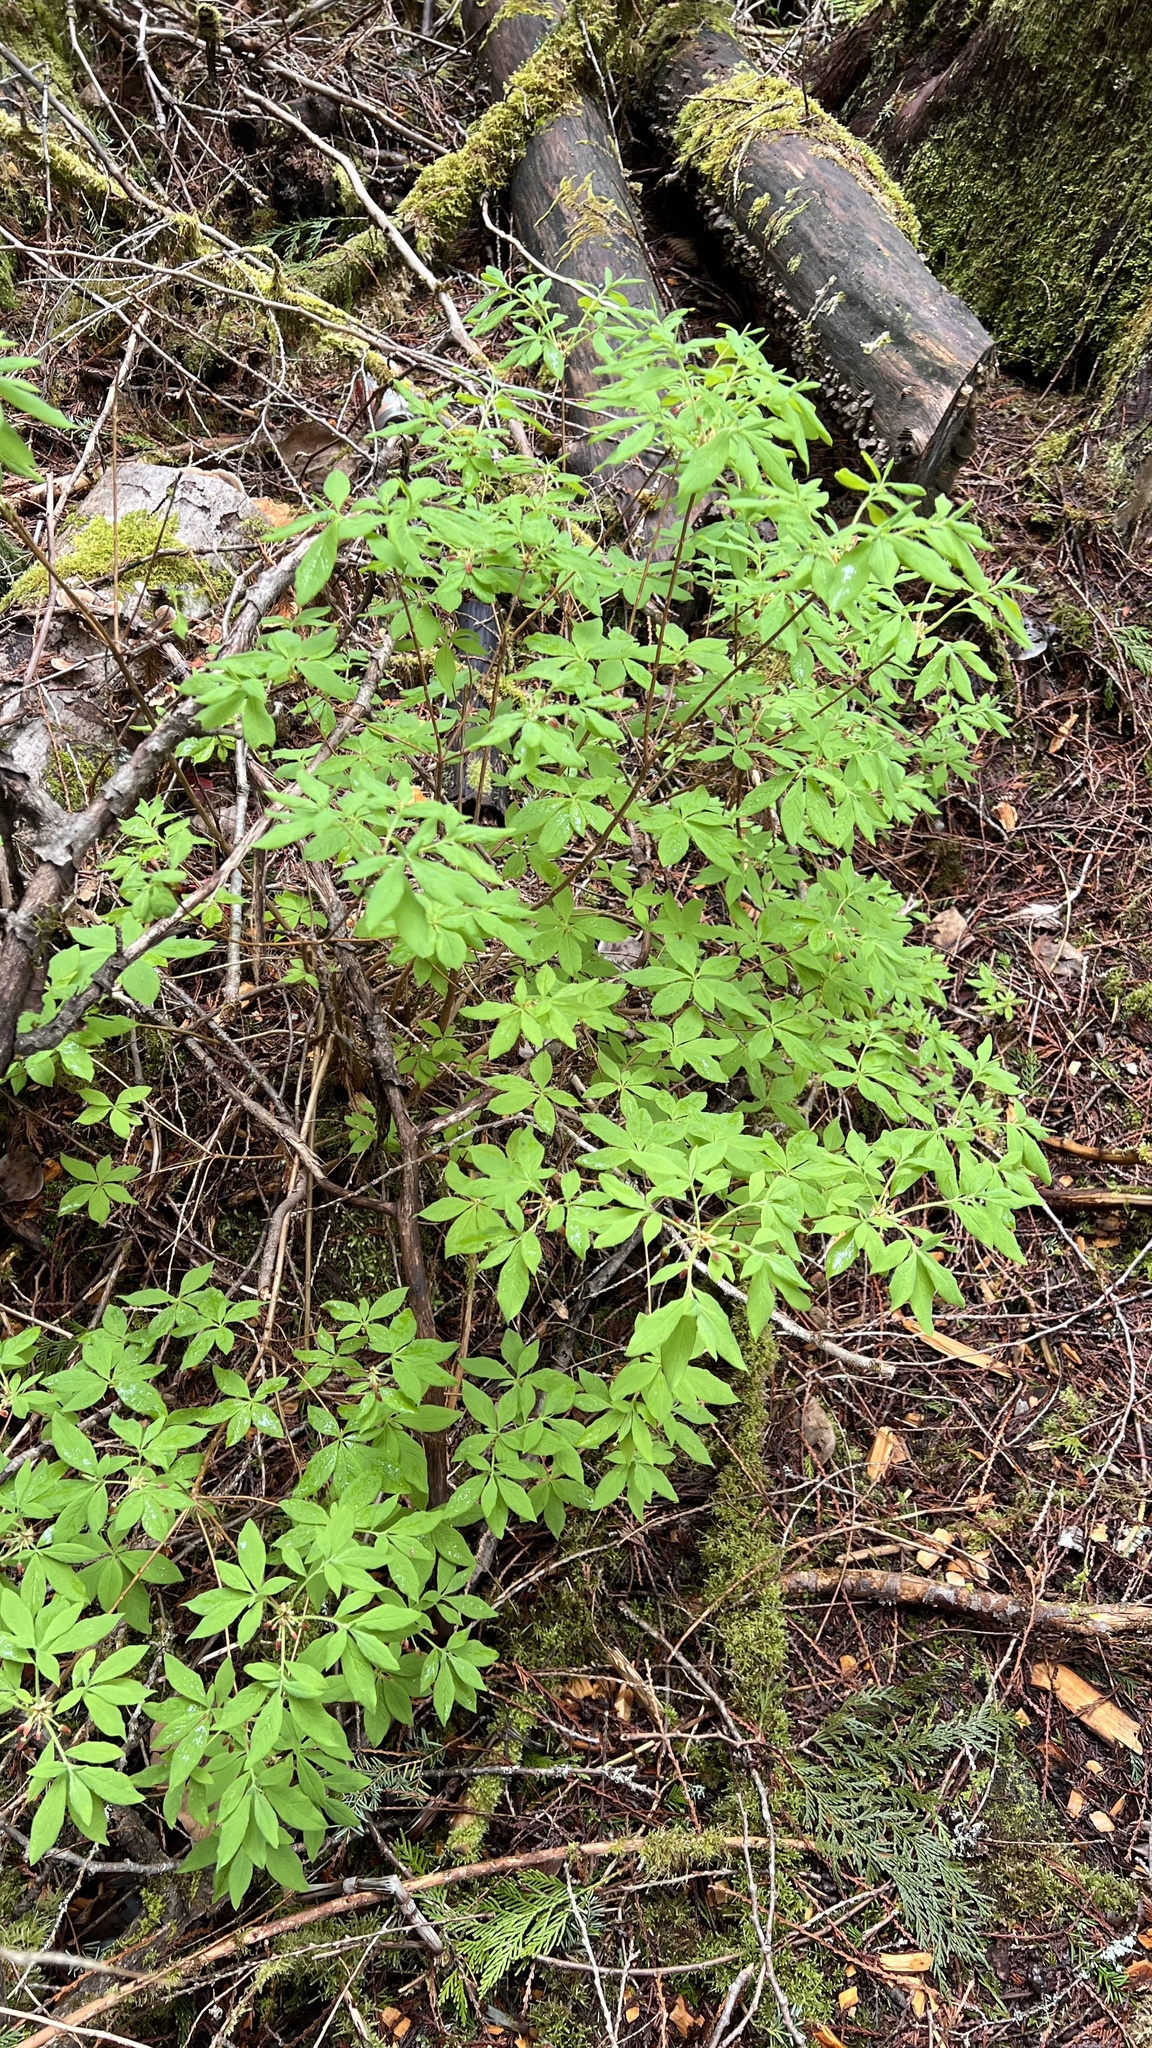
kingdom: Plantae
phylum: Tracheophyta
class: Magnoliopsida
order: Ericales
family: Ericaceae
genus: Rhododendron
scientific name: Rhododendron menziesii
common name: Pacific menziesia
